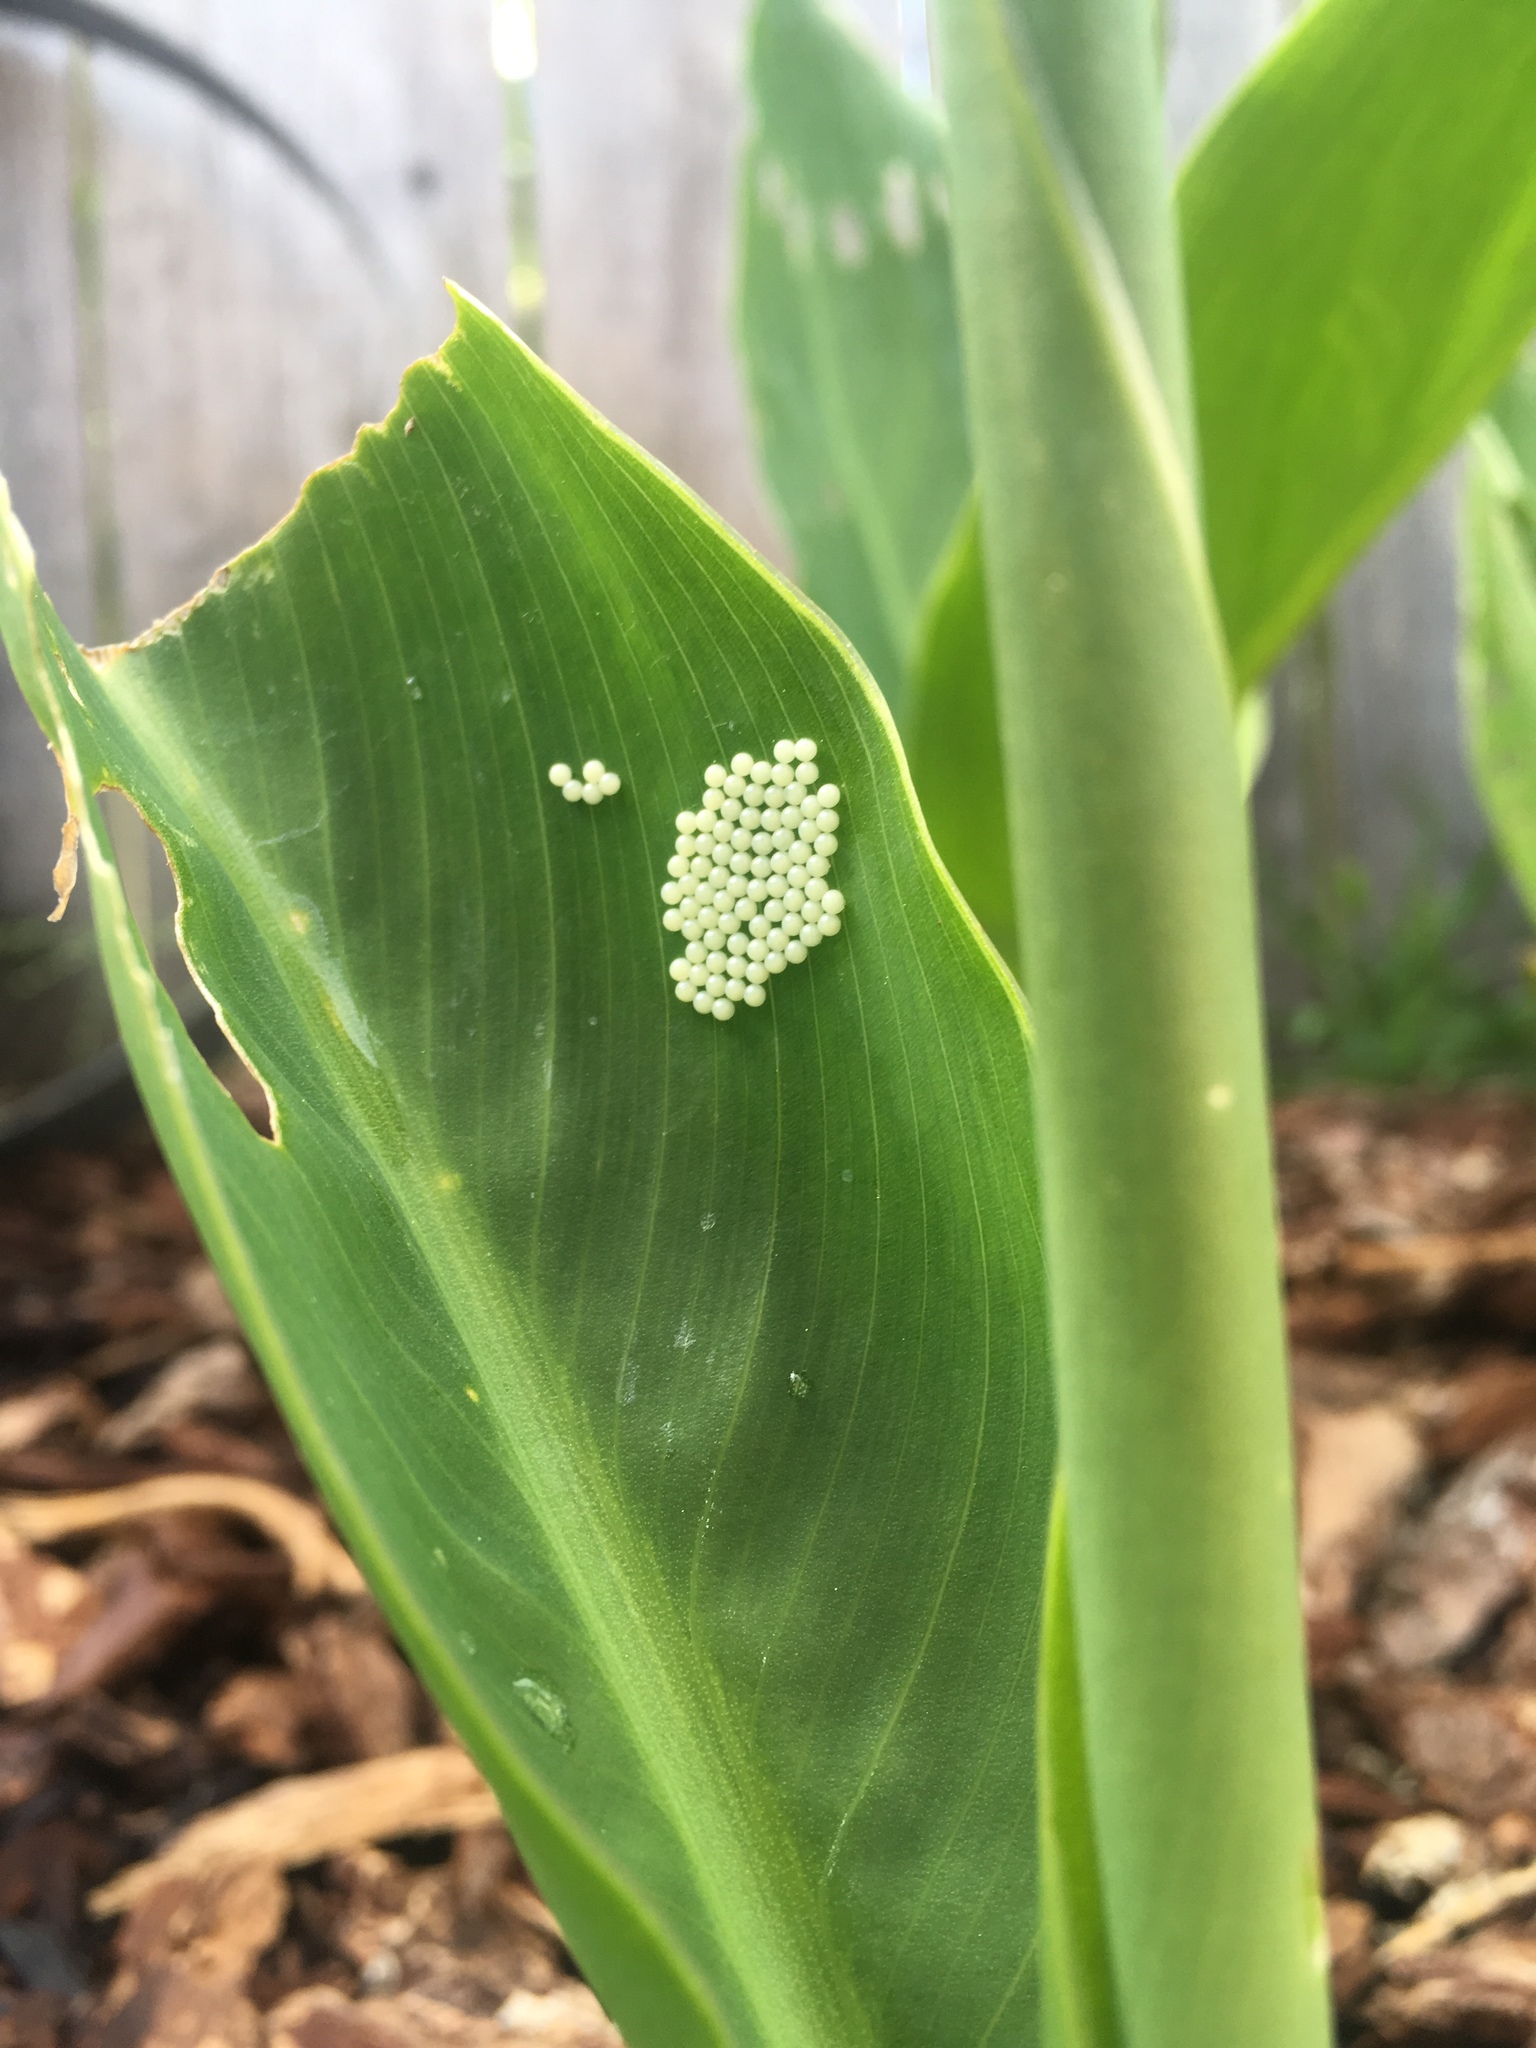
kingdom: Animalia
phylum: Arthropoda
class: Insecta
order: Lepidoptera
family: Erebidae
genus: Spilosoma
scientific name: Spilosoma vestalis
